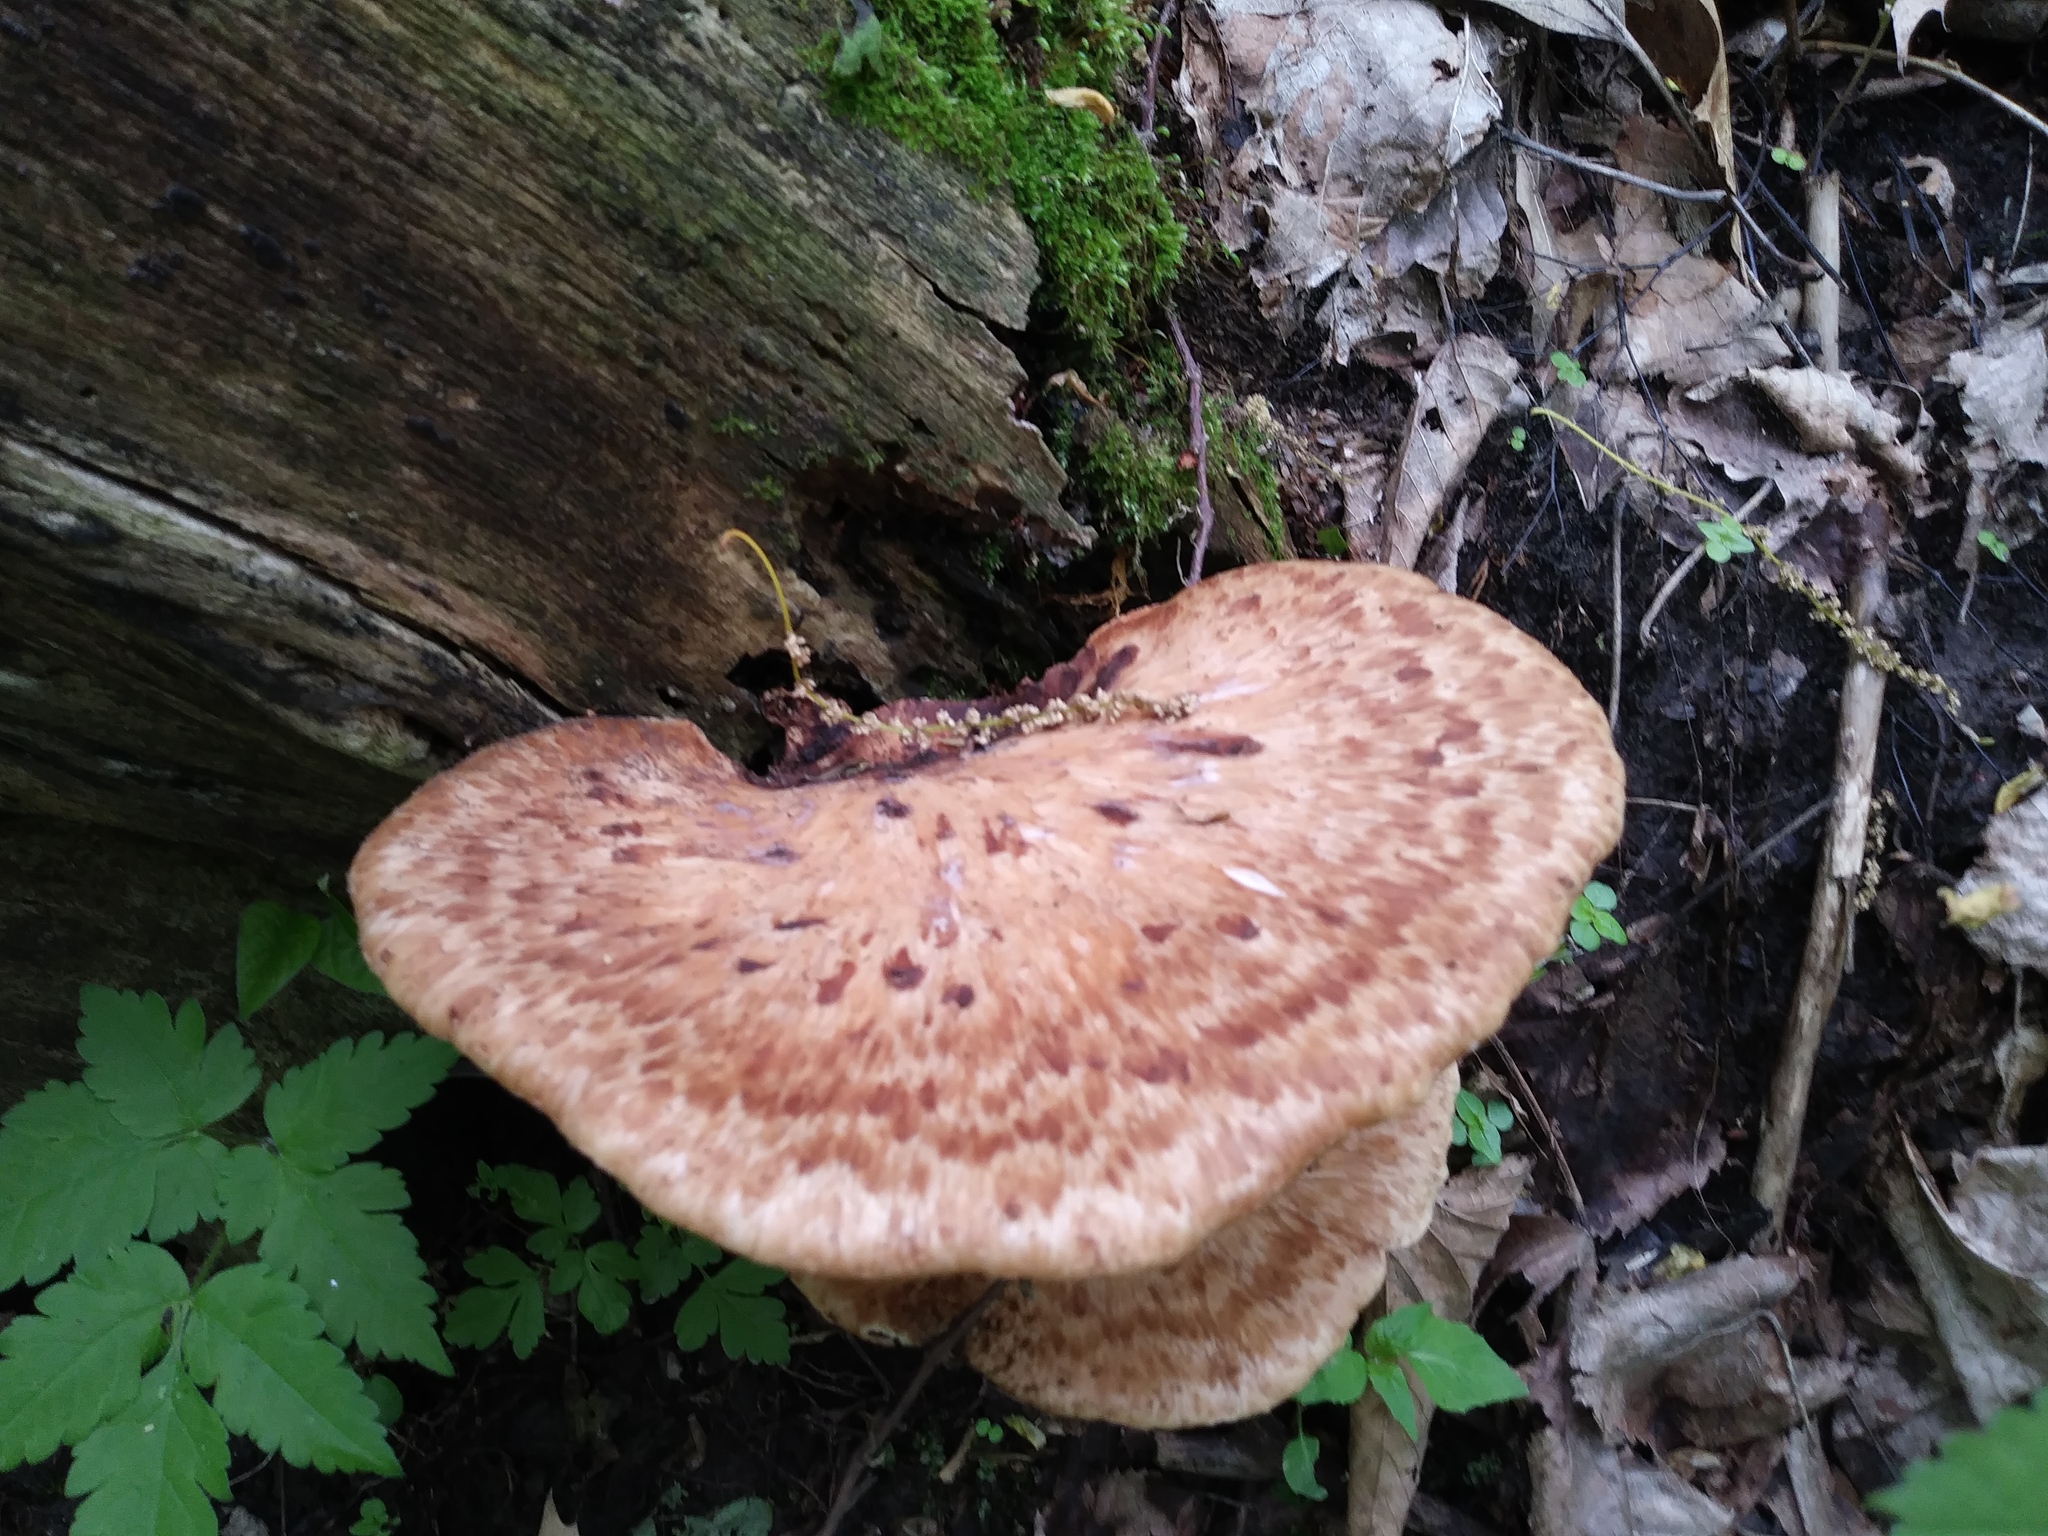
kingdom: Fungi
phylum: Basidiomycota
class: Agaricomycetes
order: Polyporales
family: Polyporaceae
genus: Cerioporus
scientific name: Cerioporus squamosus
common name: Dryad's saddle
